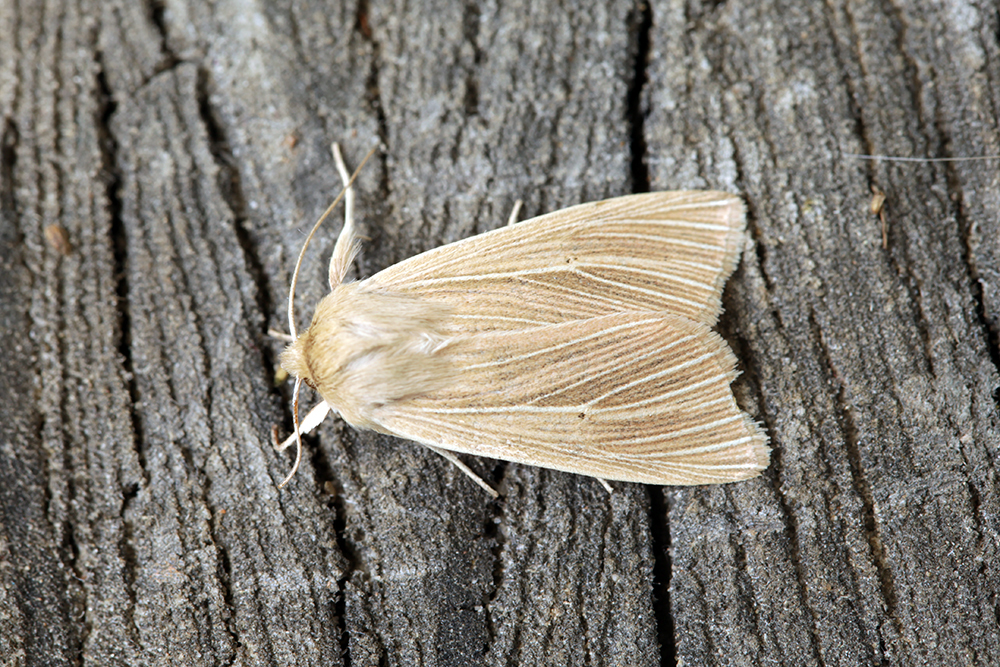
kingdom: Animalia
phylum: Arthropoda
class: Insecta
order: Lepidoptera
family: Noctuidae
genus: Mythimna
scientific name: Mythimna impura
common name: Smoky wainscot
